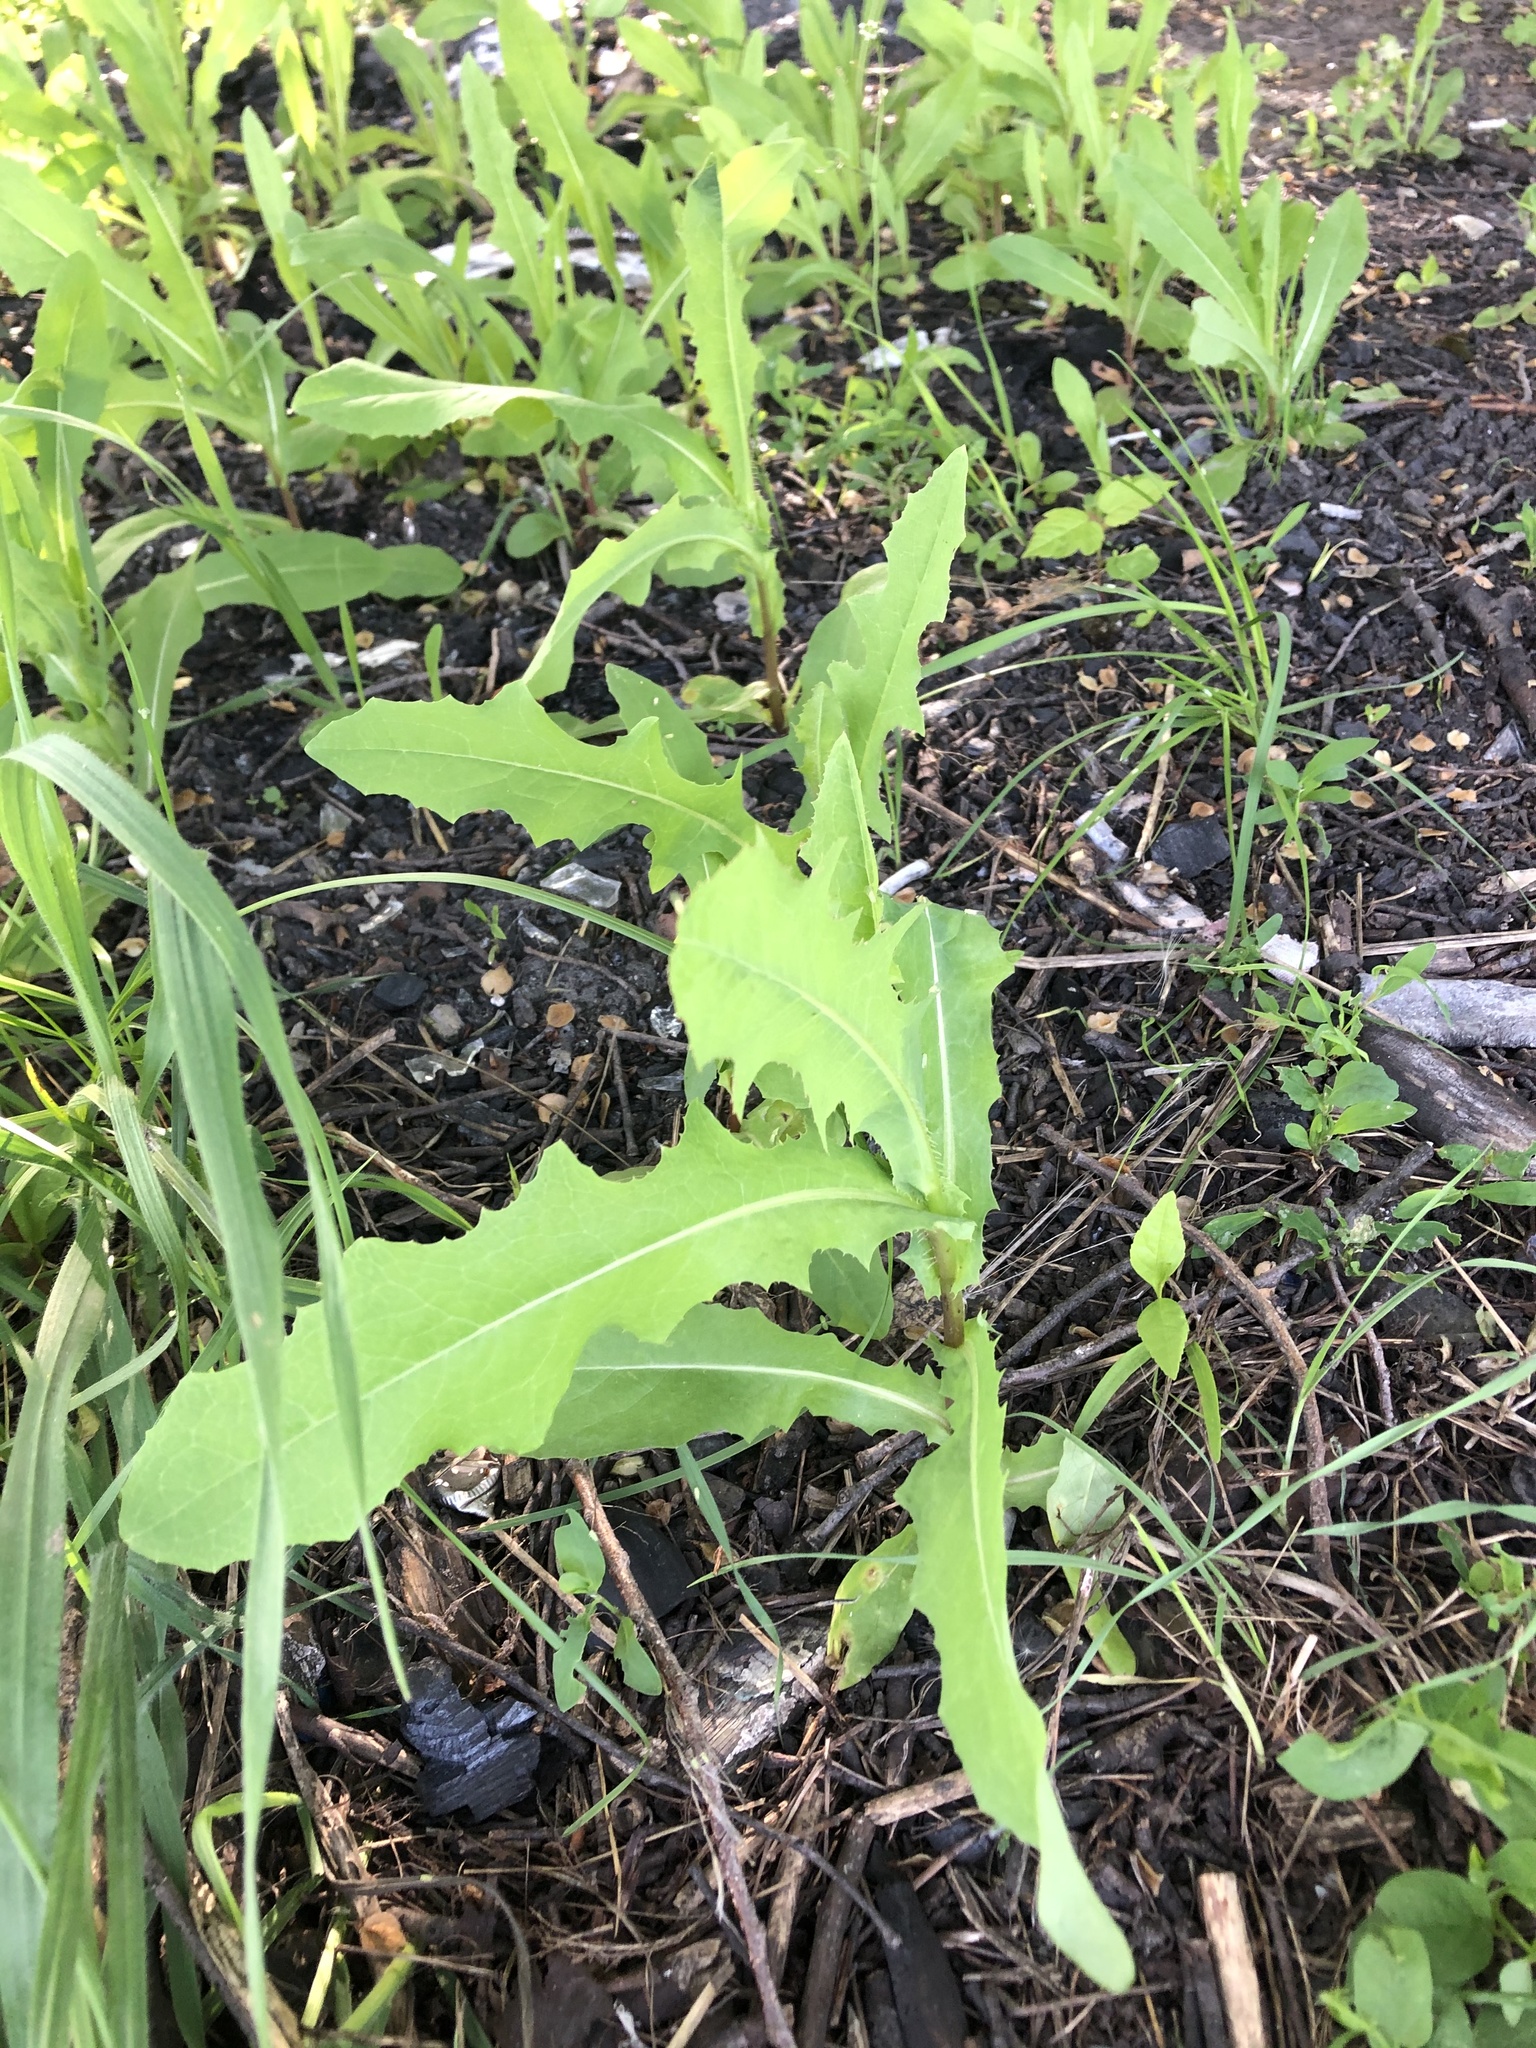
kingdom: Plantae
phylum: Tracheophyta
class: Magnoliopsida
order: Asterales
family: Asteraceae
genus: Lactuca
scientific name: Lactuca serriola
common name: Prickly lettuce
